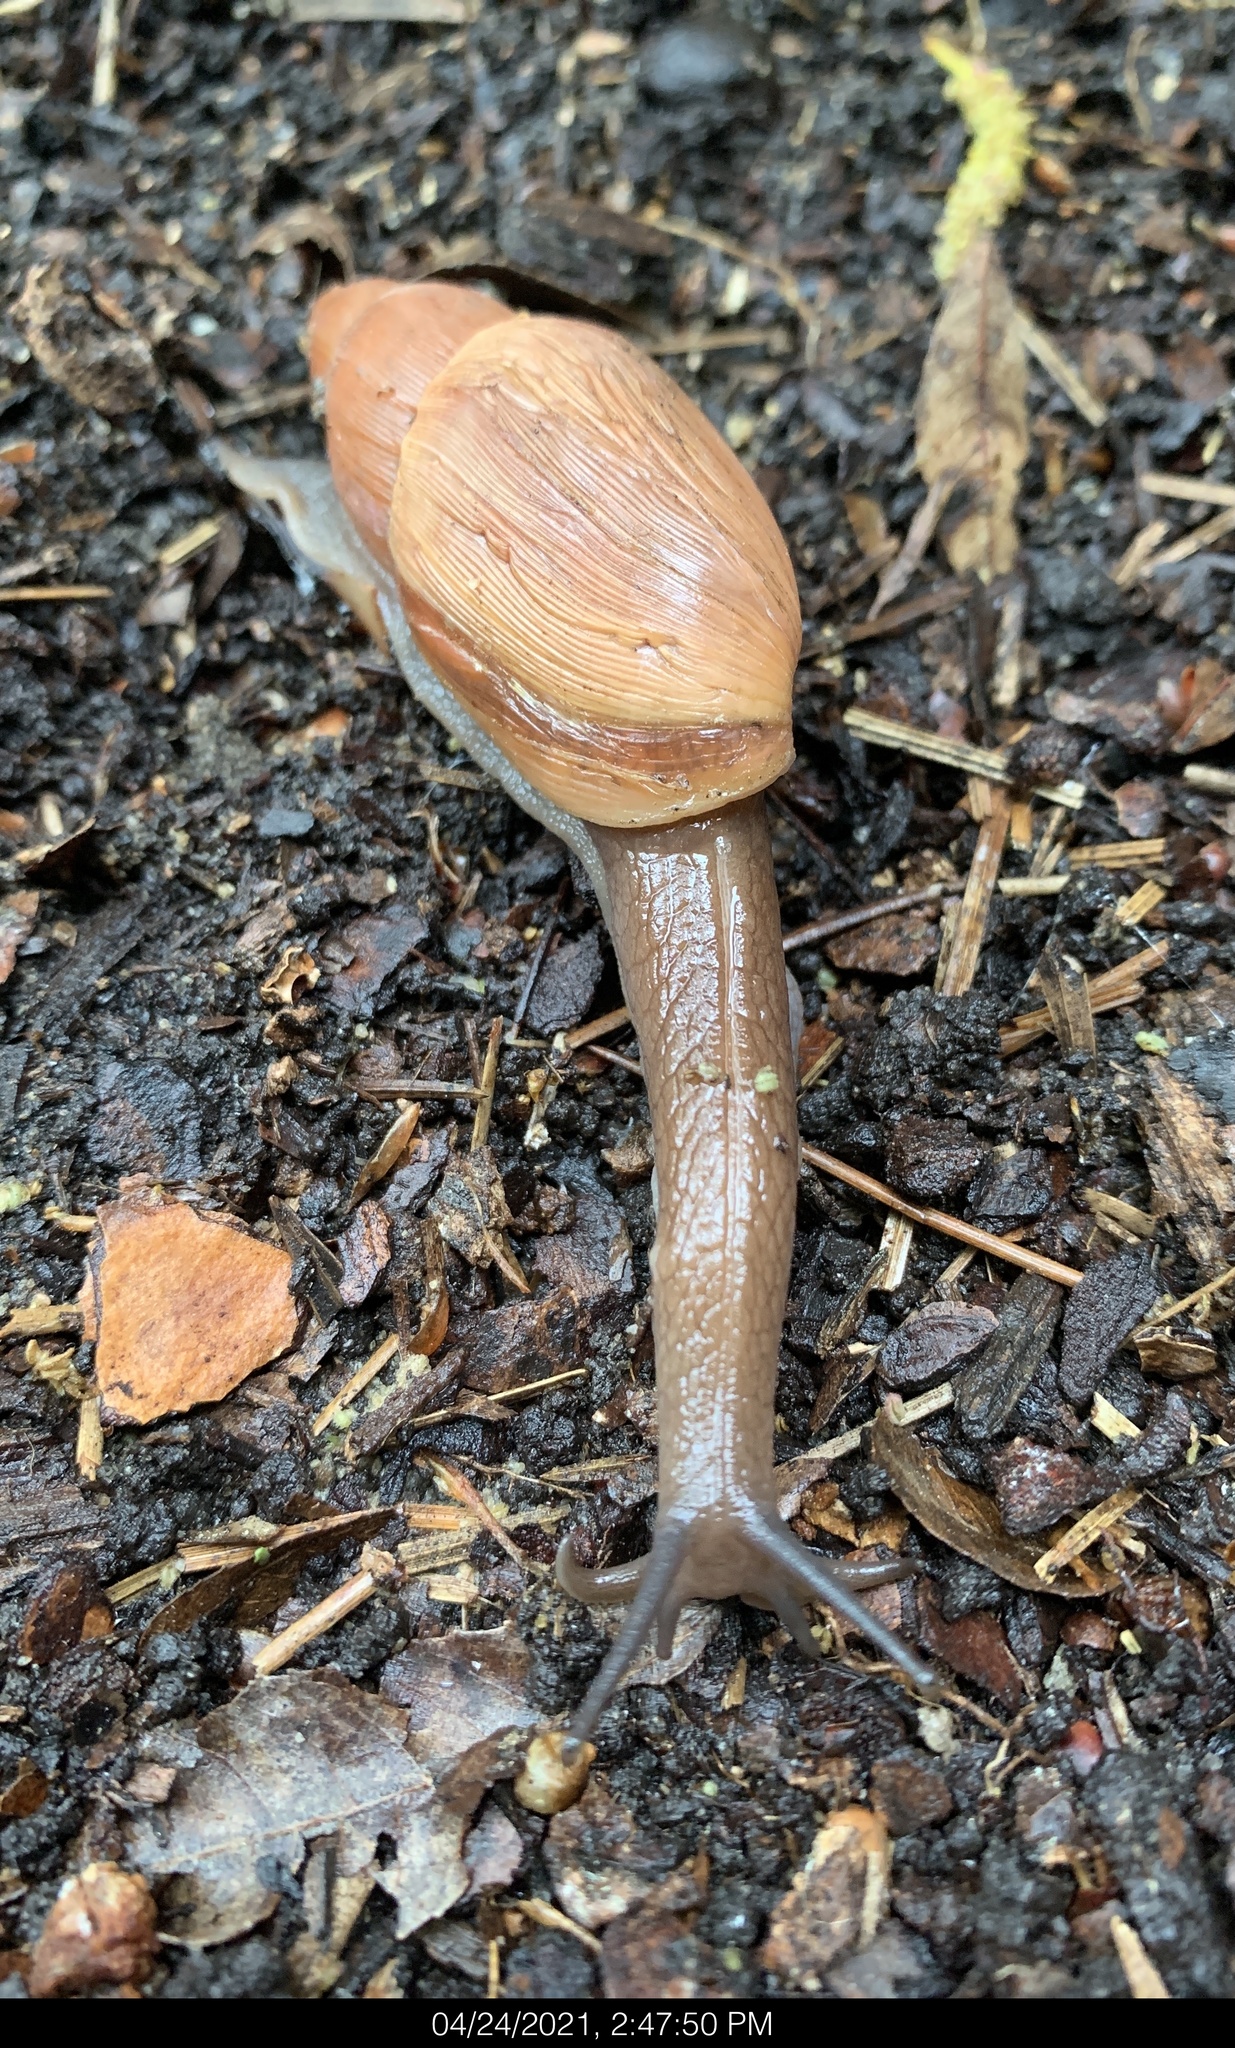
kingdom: Animalia
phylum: Mollusca
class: Gastropoda
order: Stylommatophora
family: Spiraxidae
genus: Euglandina
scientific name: Euglandina rosea
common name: Rosy wolfsnail
